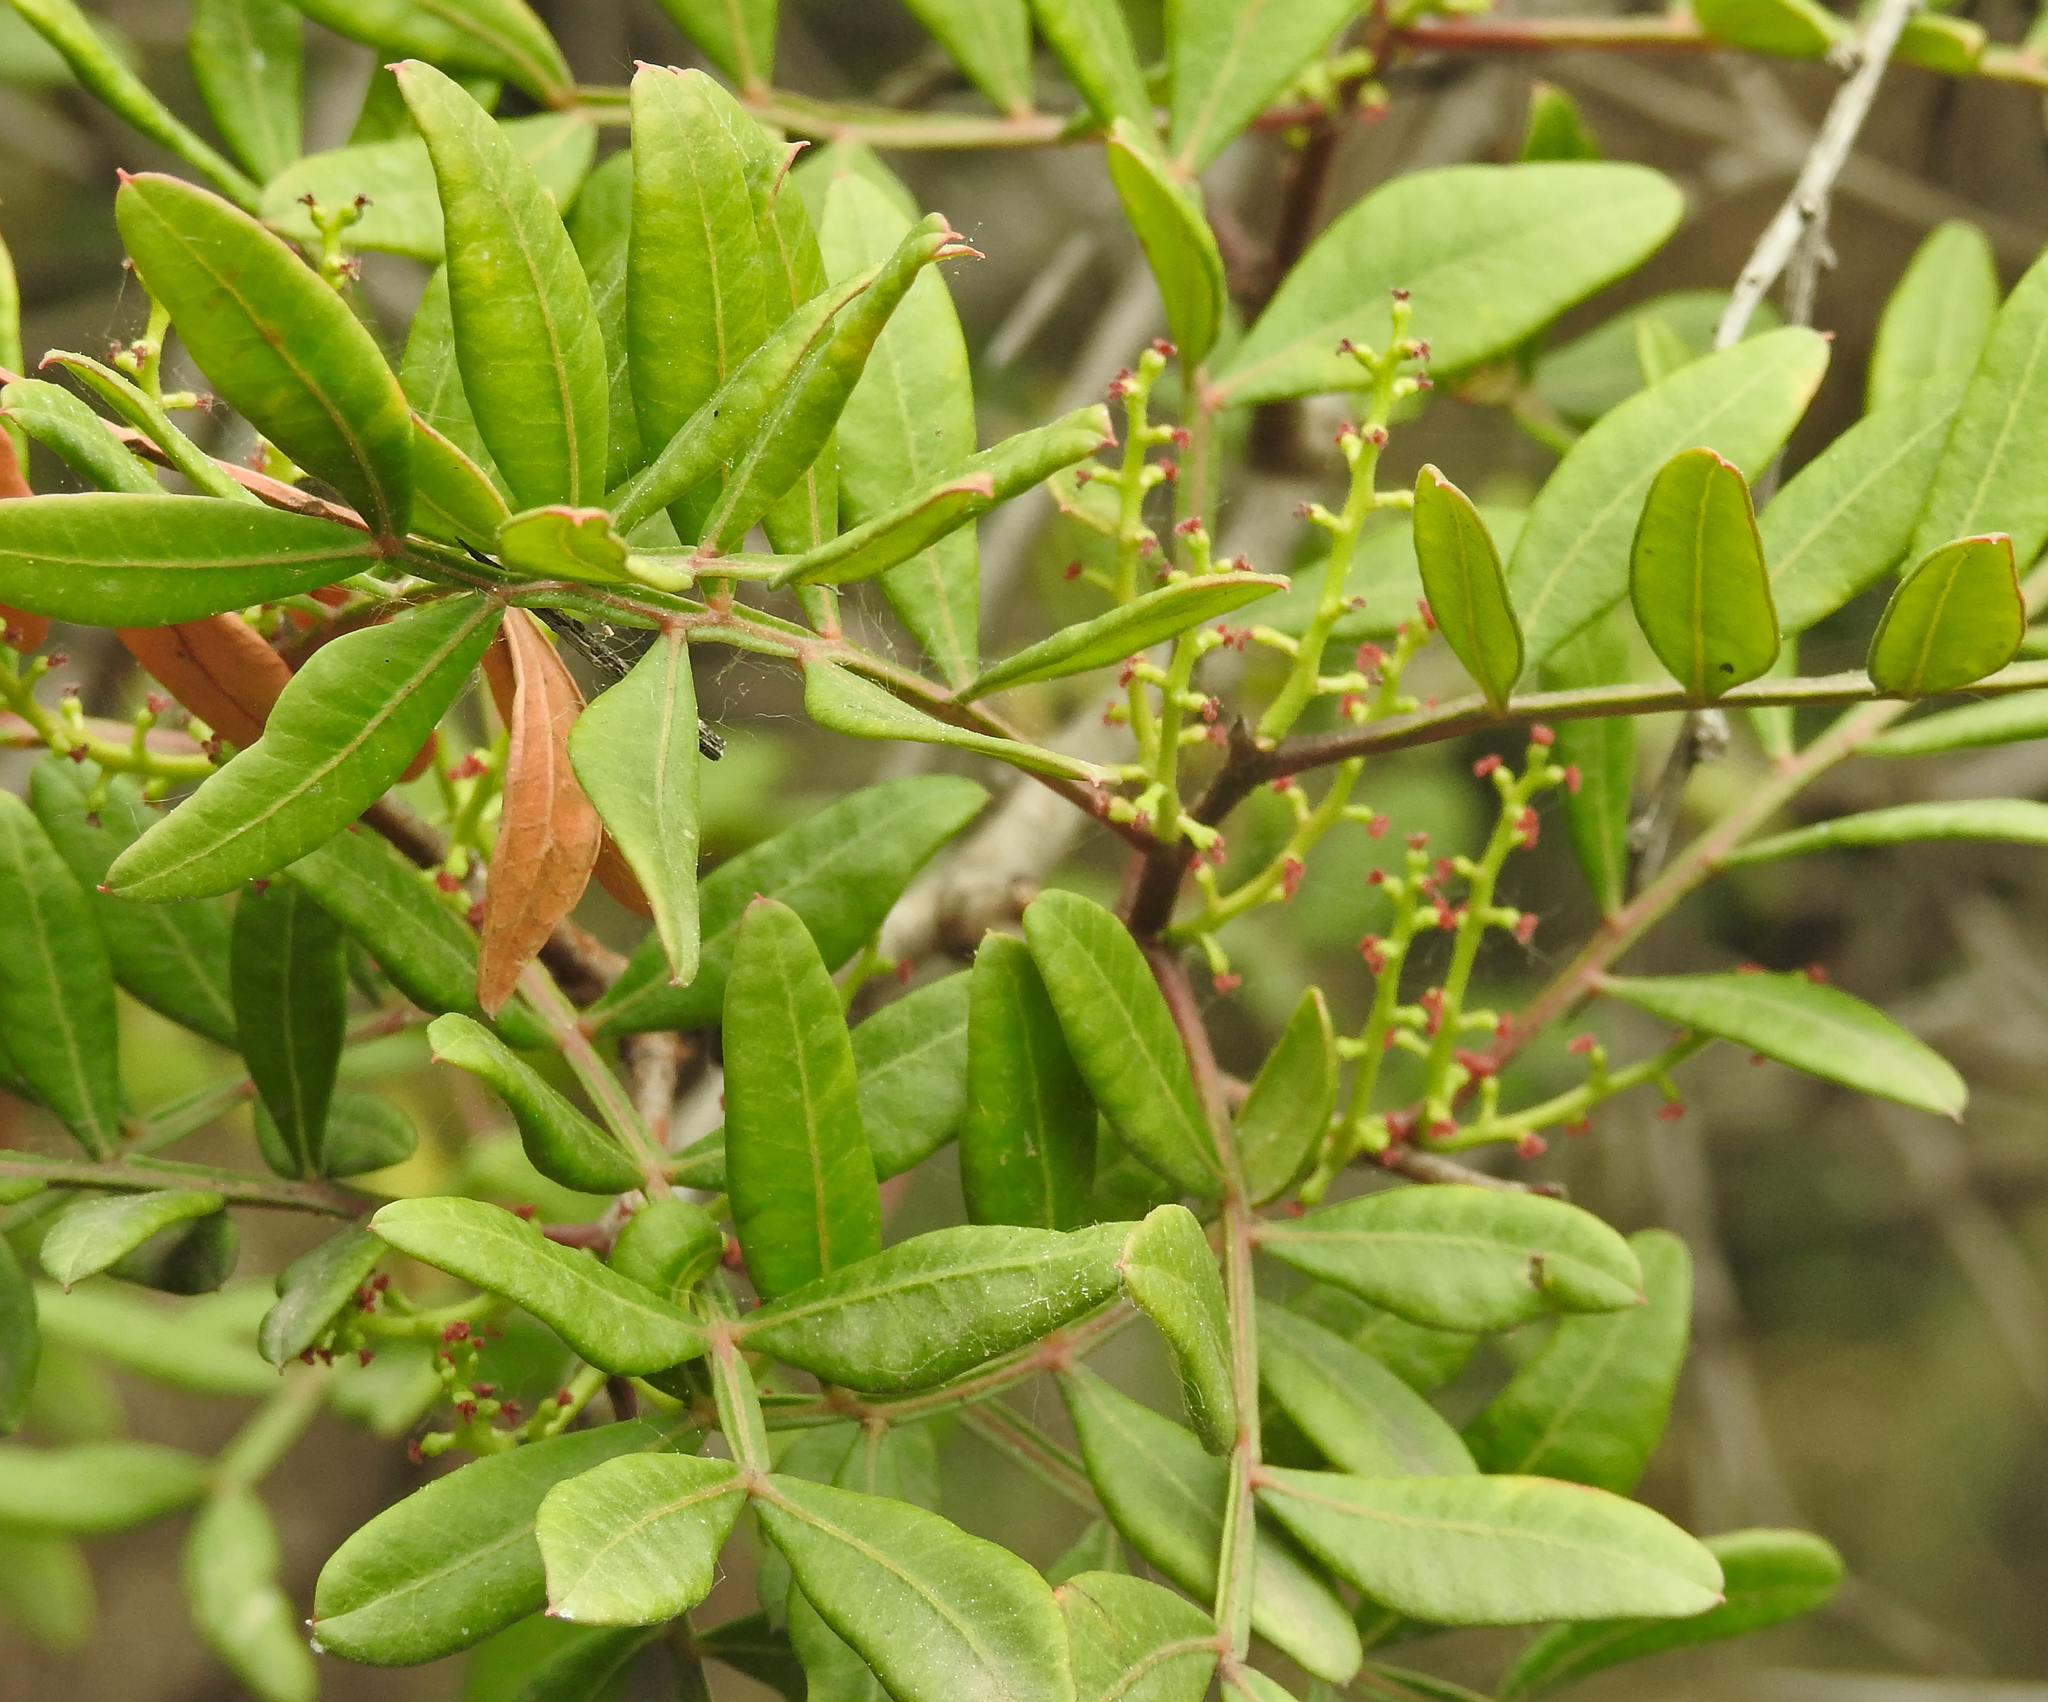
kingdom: Plantae
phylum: Tracheophyta
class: Magnoliopsida
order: Sapindales
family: Anacardiaceae
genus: Pistacia
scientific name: Pistacia lentiscus
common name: Lentisk
